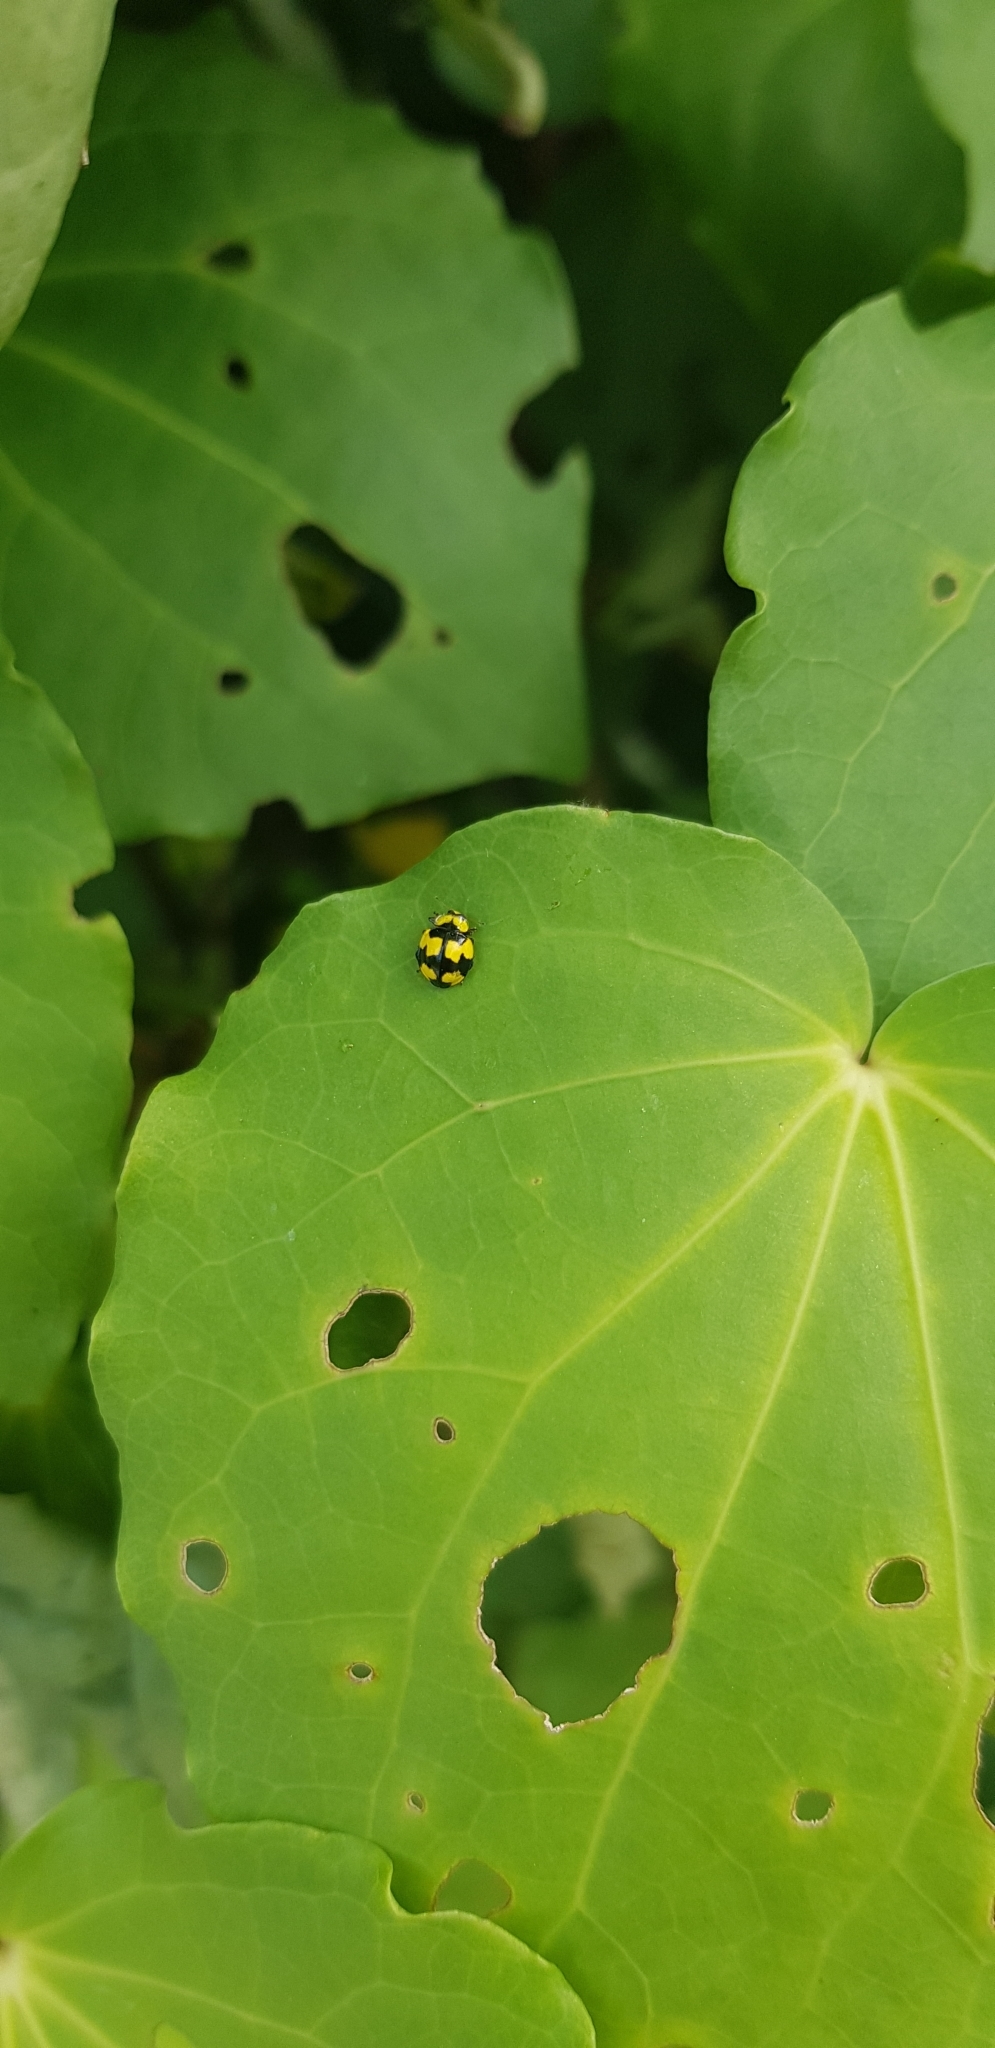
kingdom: Plantae
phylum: Tracheophyta
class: Magnoliopsida
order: Piperales
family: Piperaceae
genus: Macropiper
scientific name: Macropiper excelsum
